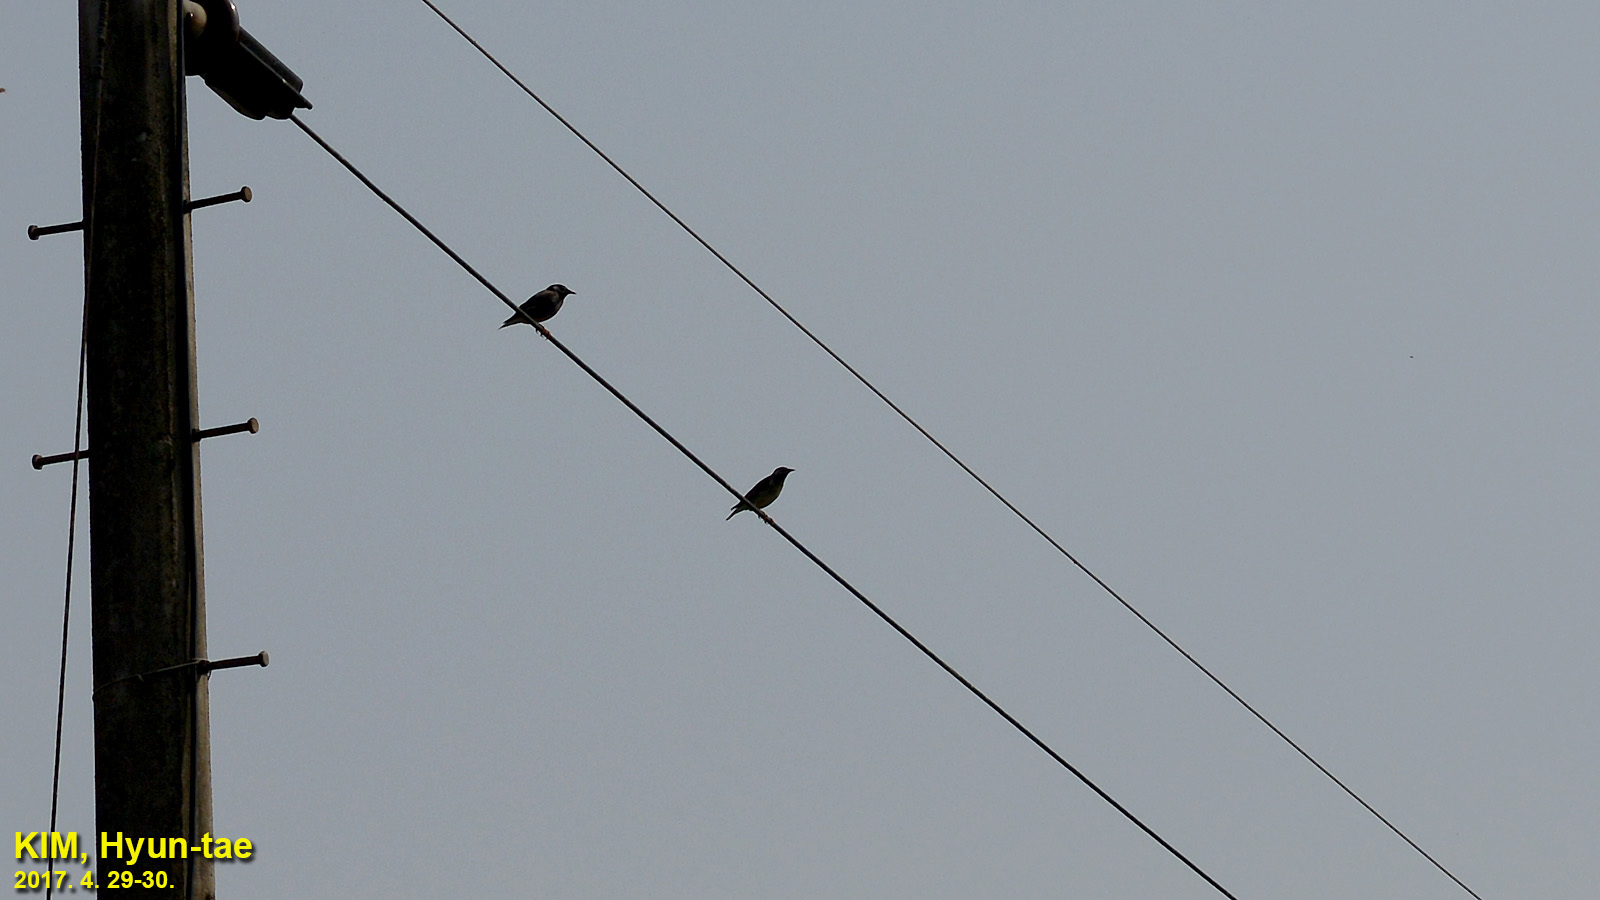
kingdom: Animalia
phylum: Chordata
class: Aves
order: Passeriformes
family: Sturnidae
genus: Spodiopsar
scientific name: Spodiopsar cineraceus
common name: White-cheeked starling
